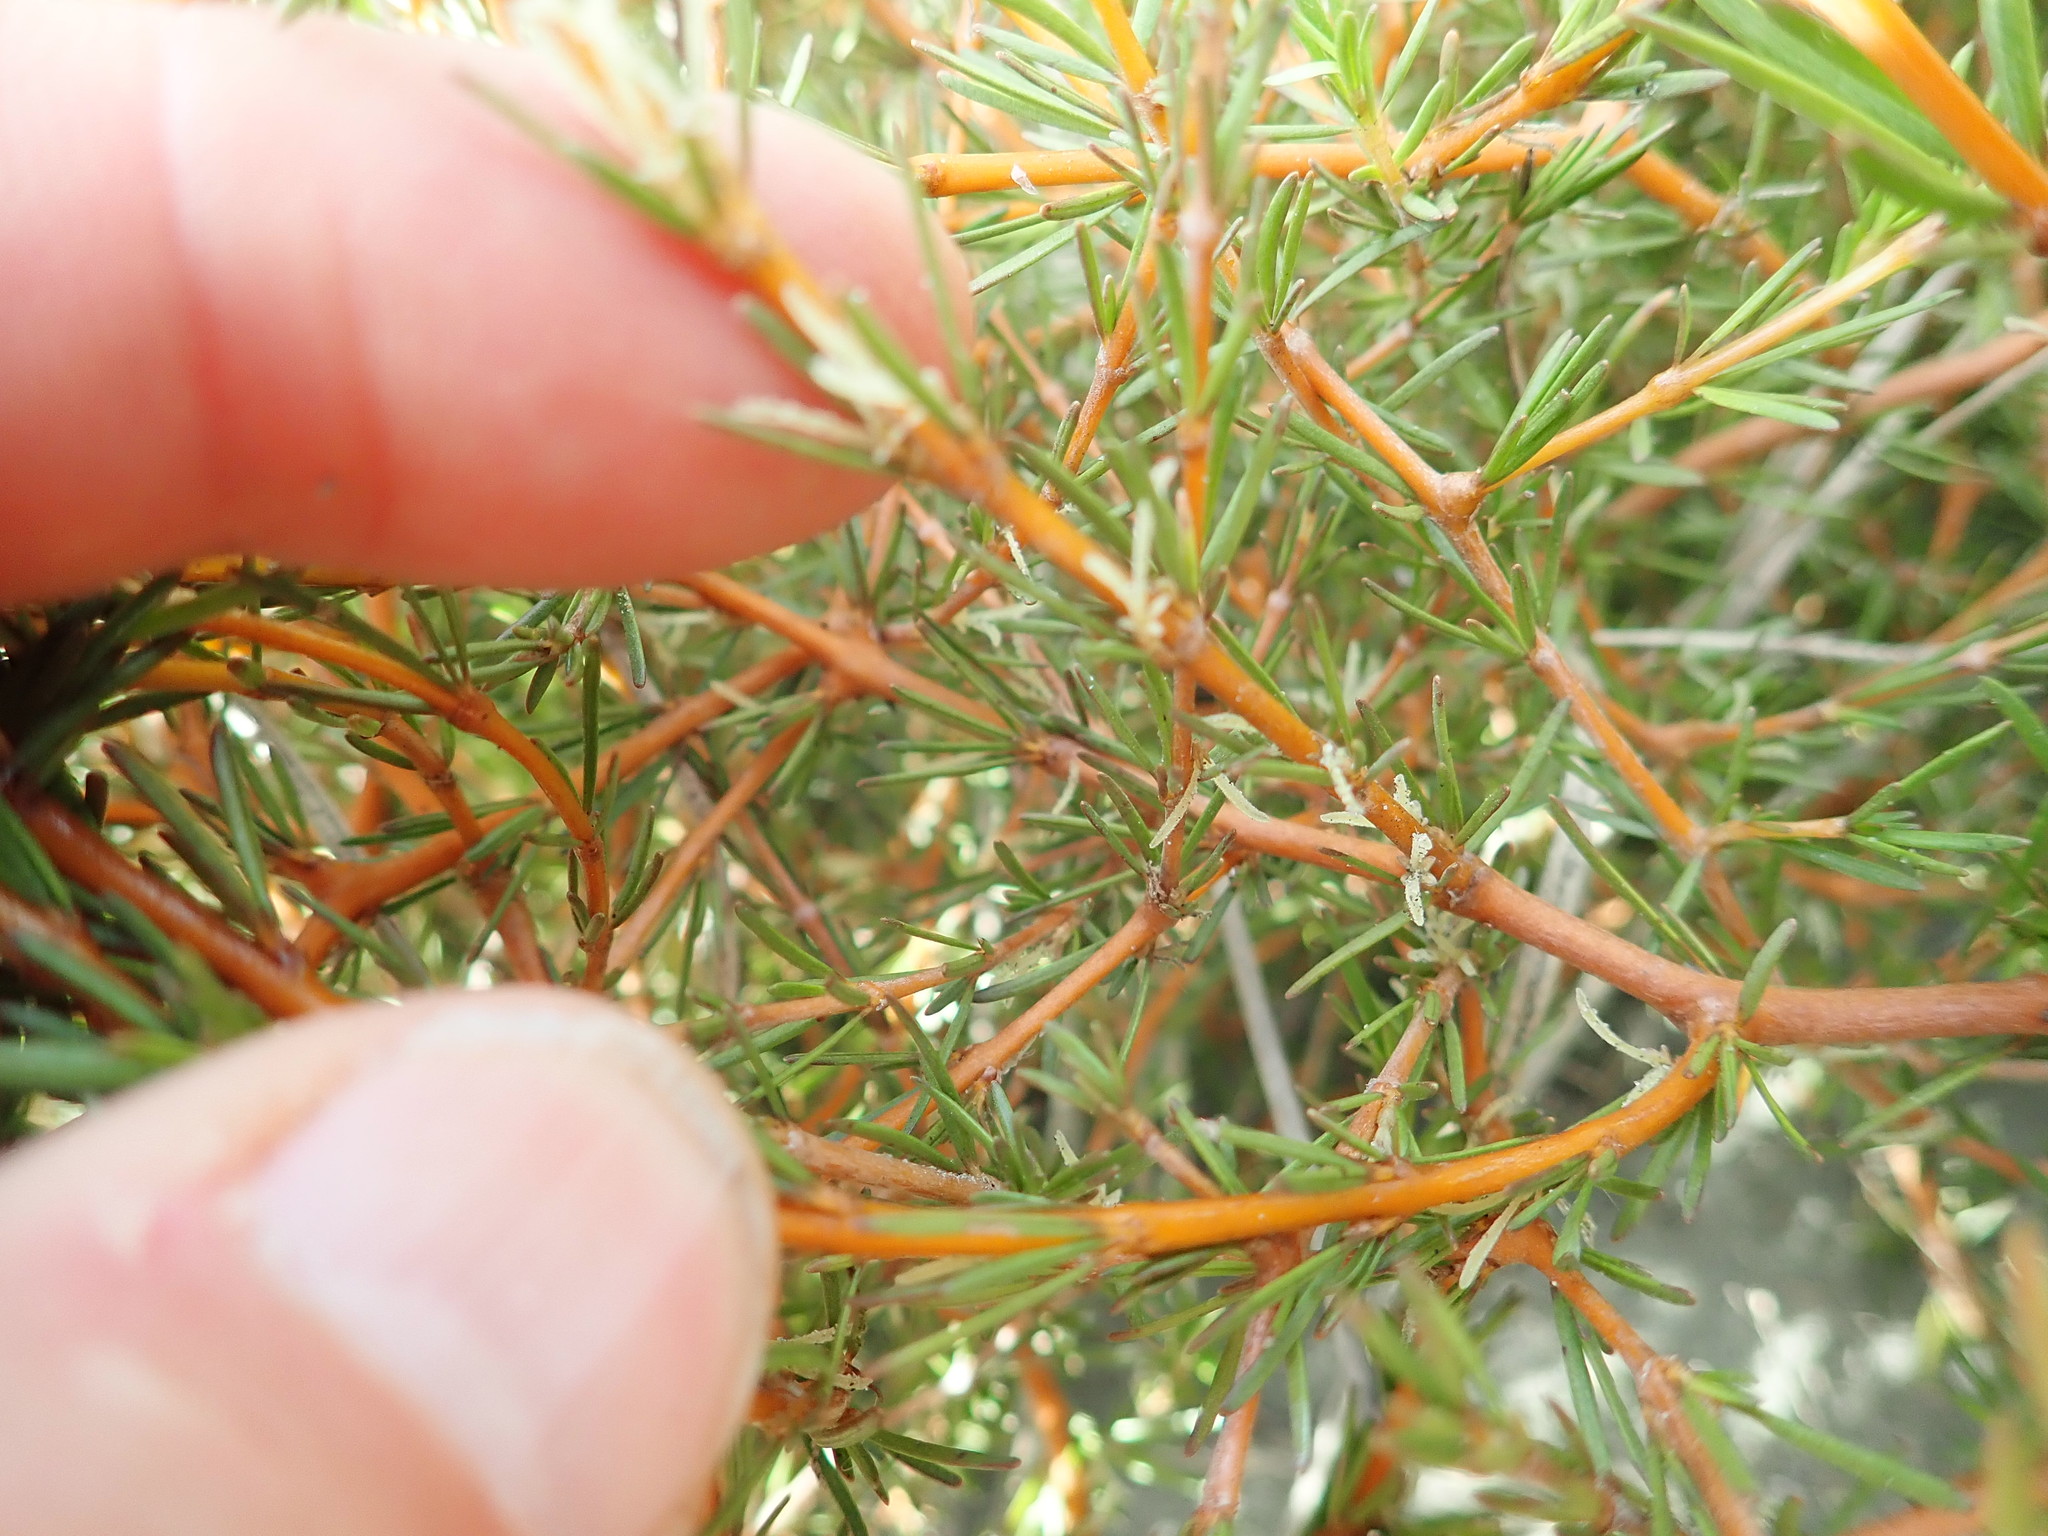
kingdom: Plantae
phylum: Tracheophyta
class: Magnoliopsida
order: Gentianales
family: Rubiaceae
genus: Coprosma
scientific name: Coprosma acerosa
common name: Sand coprosma
